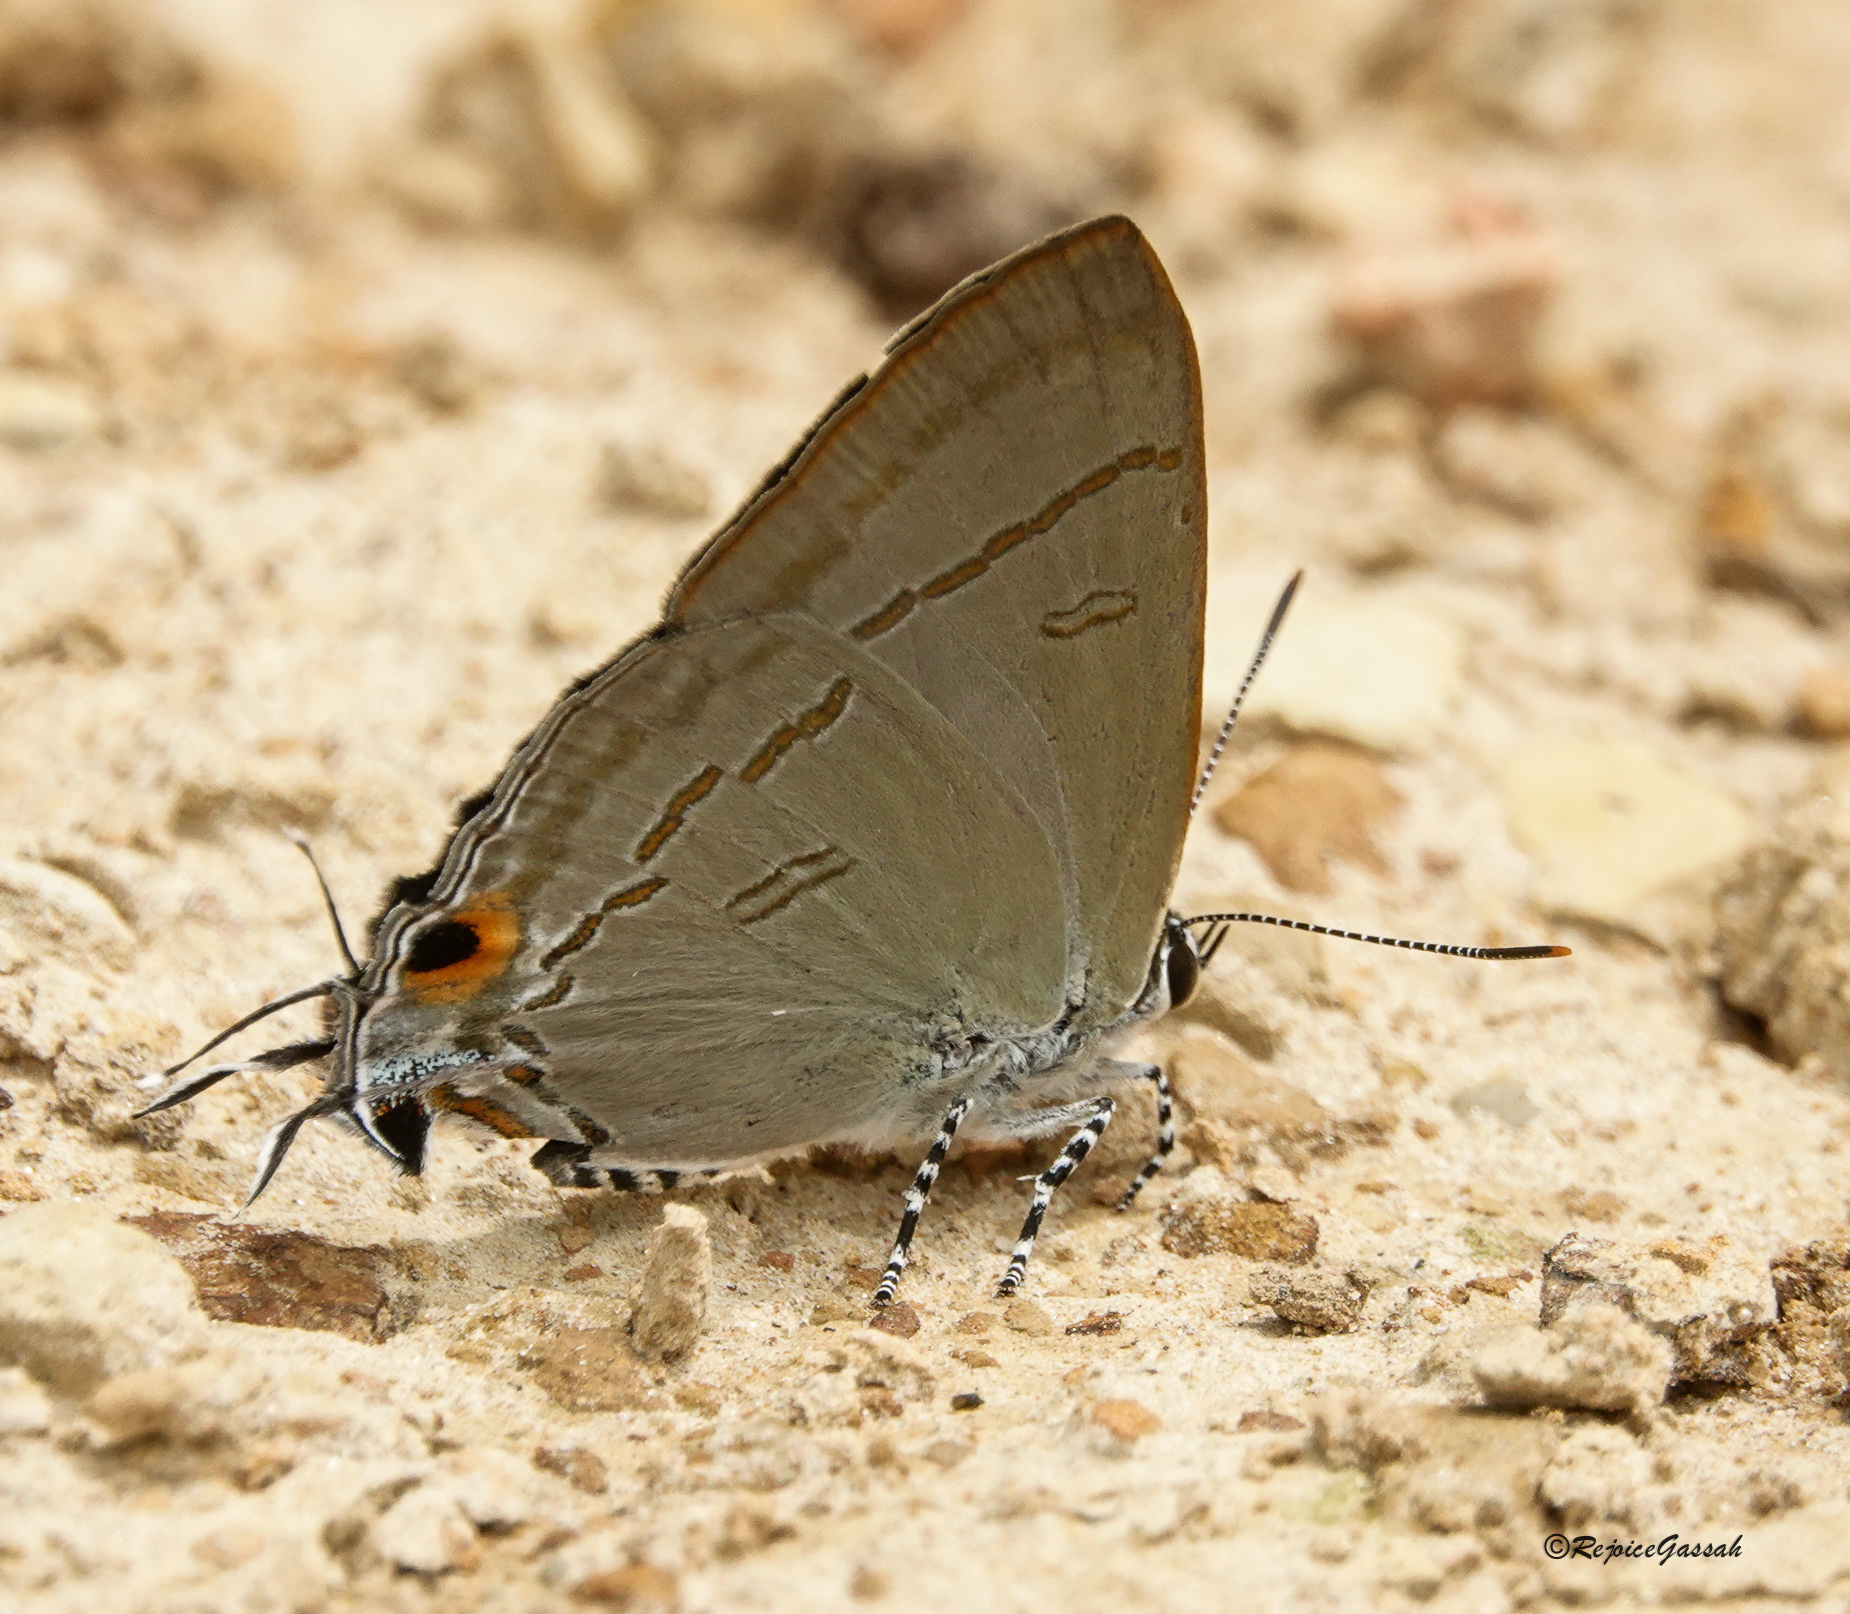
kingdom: Animalia
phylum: Arthropoda
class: Insecta
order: Lepidoptera
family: Lycaenidae
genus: Hypolycaena
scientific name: Hypolycaena erylus
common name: Common tit
